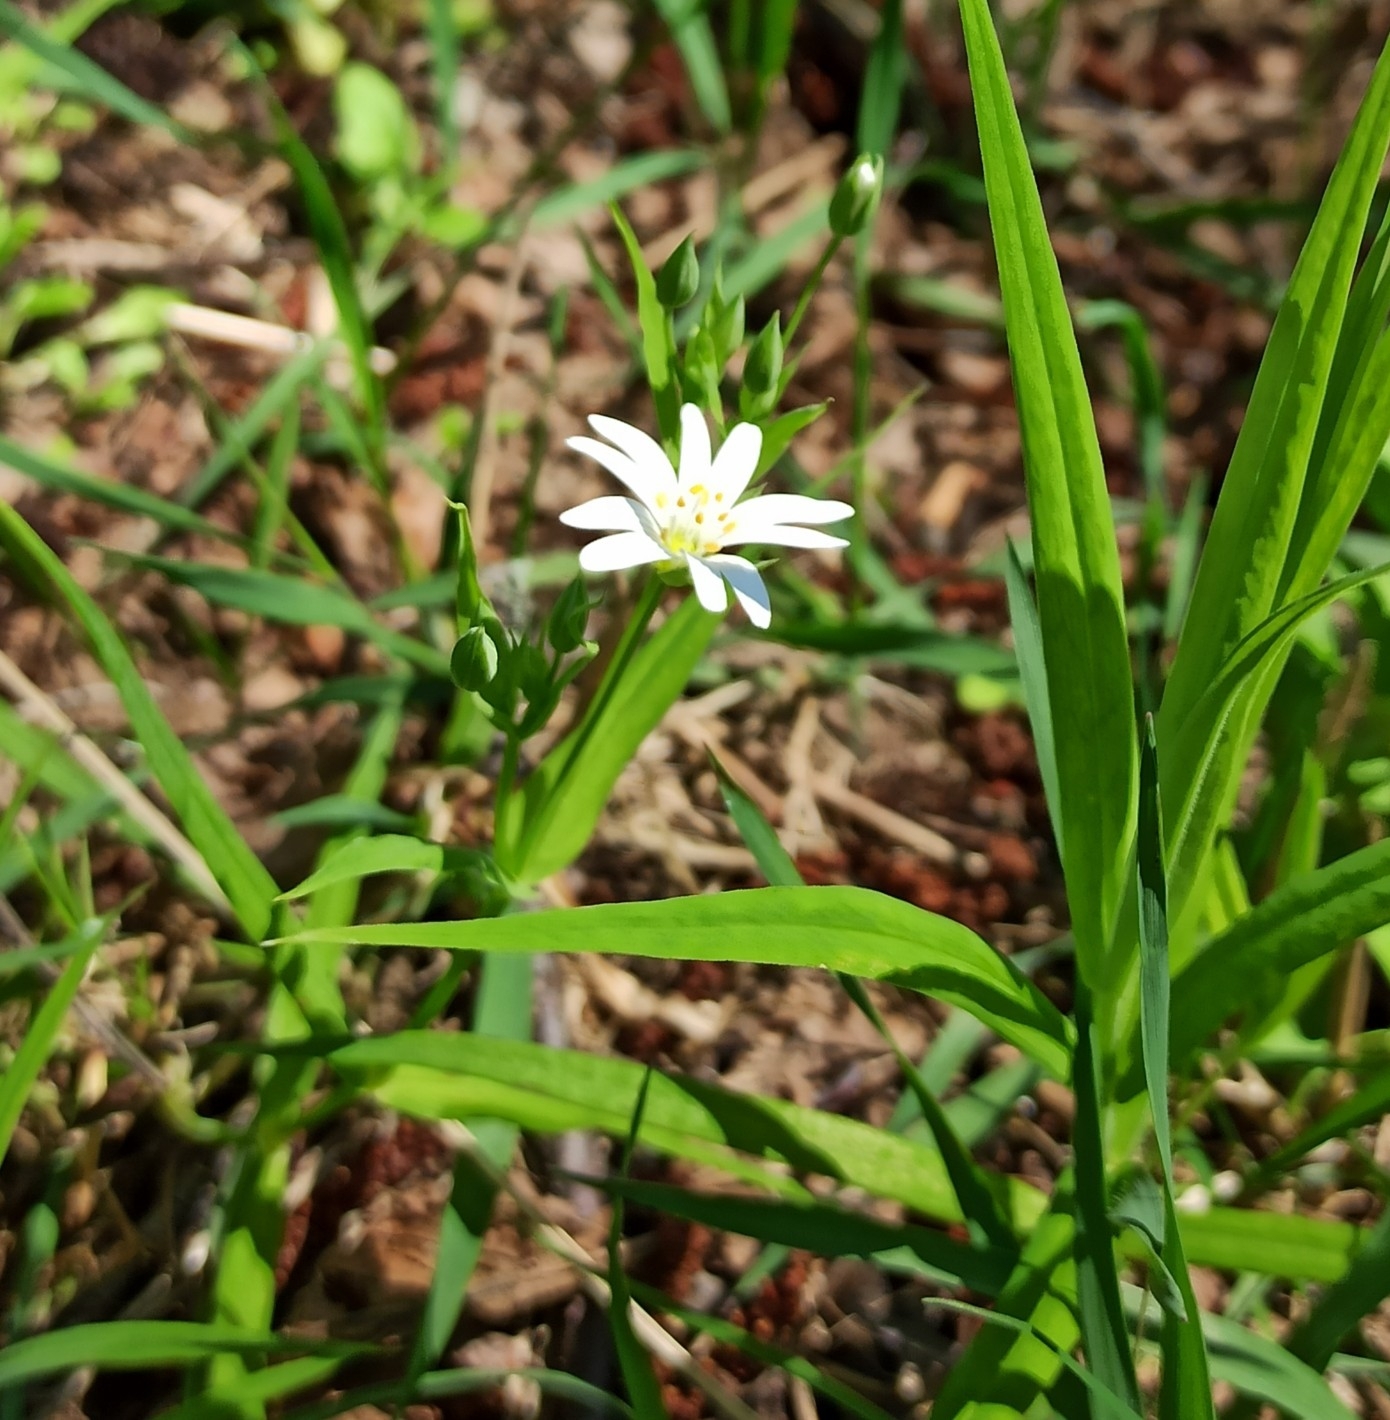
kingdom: Plantae
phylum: Tracheophyta
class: Magnoliopsida
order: Caryophyllales
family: Caryophyllaceae
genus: Rabelera
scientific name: Rabelera holostea
